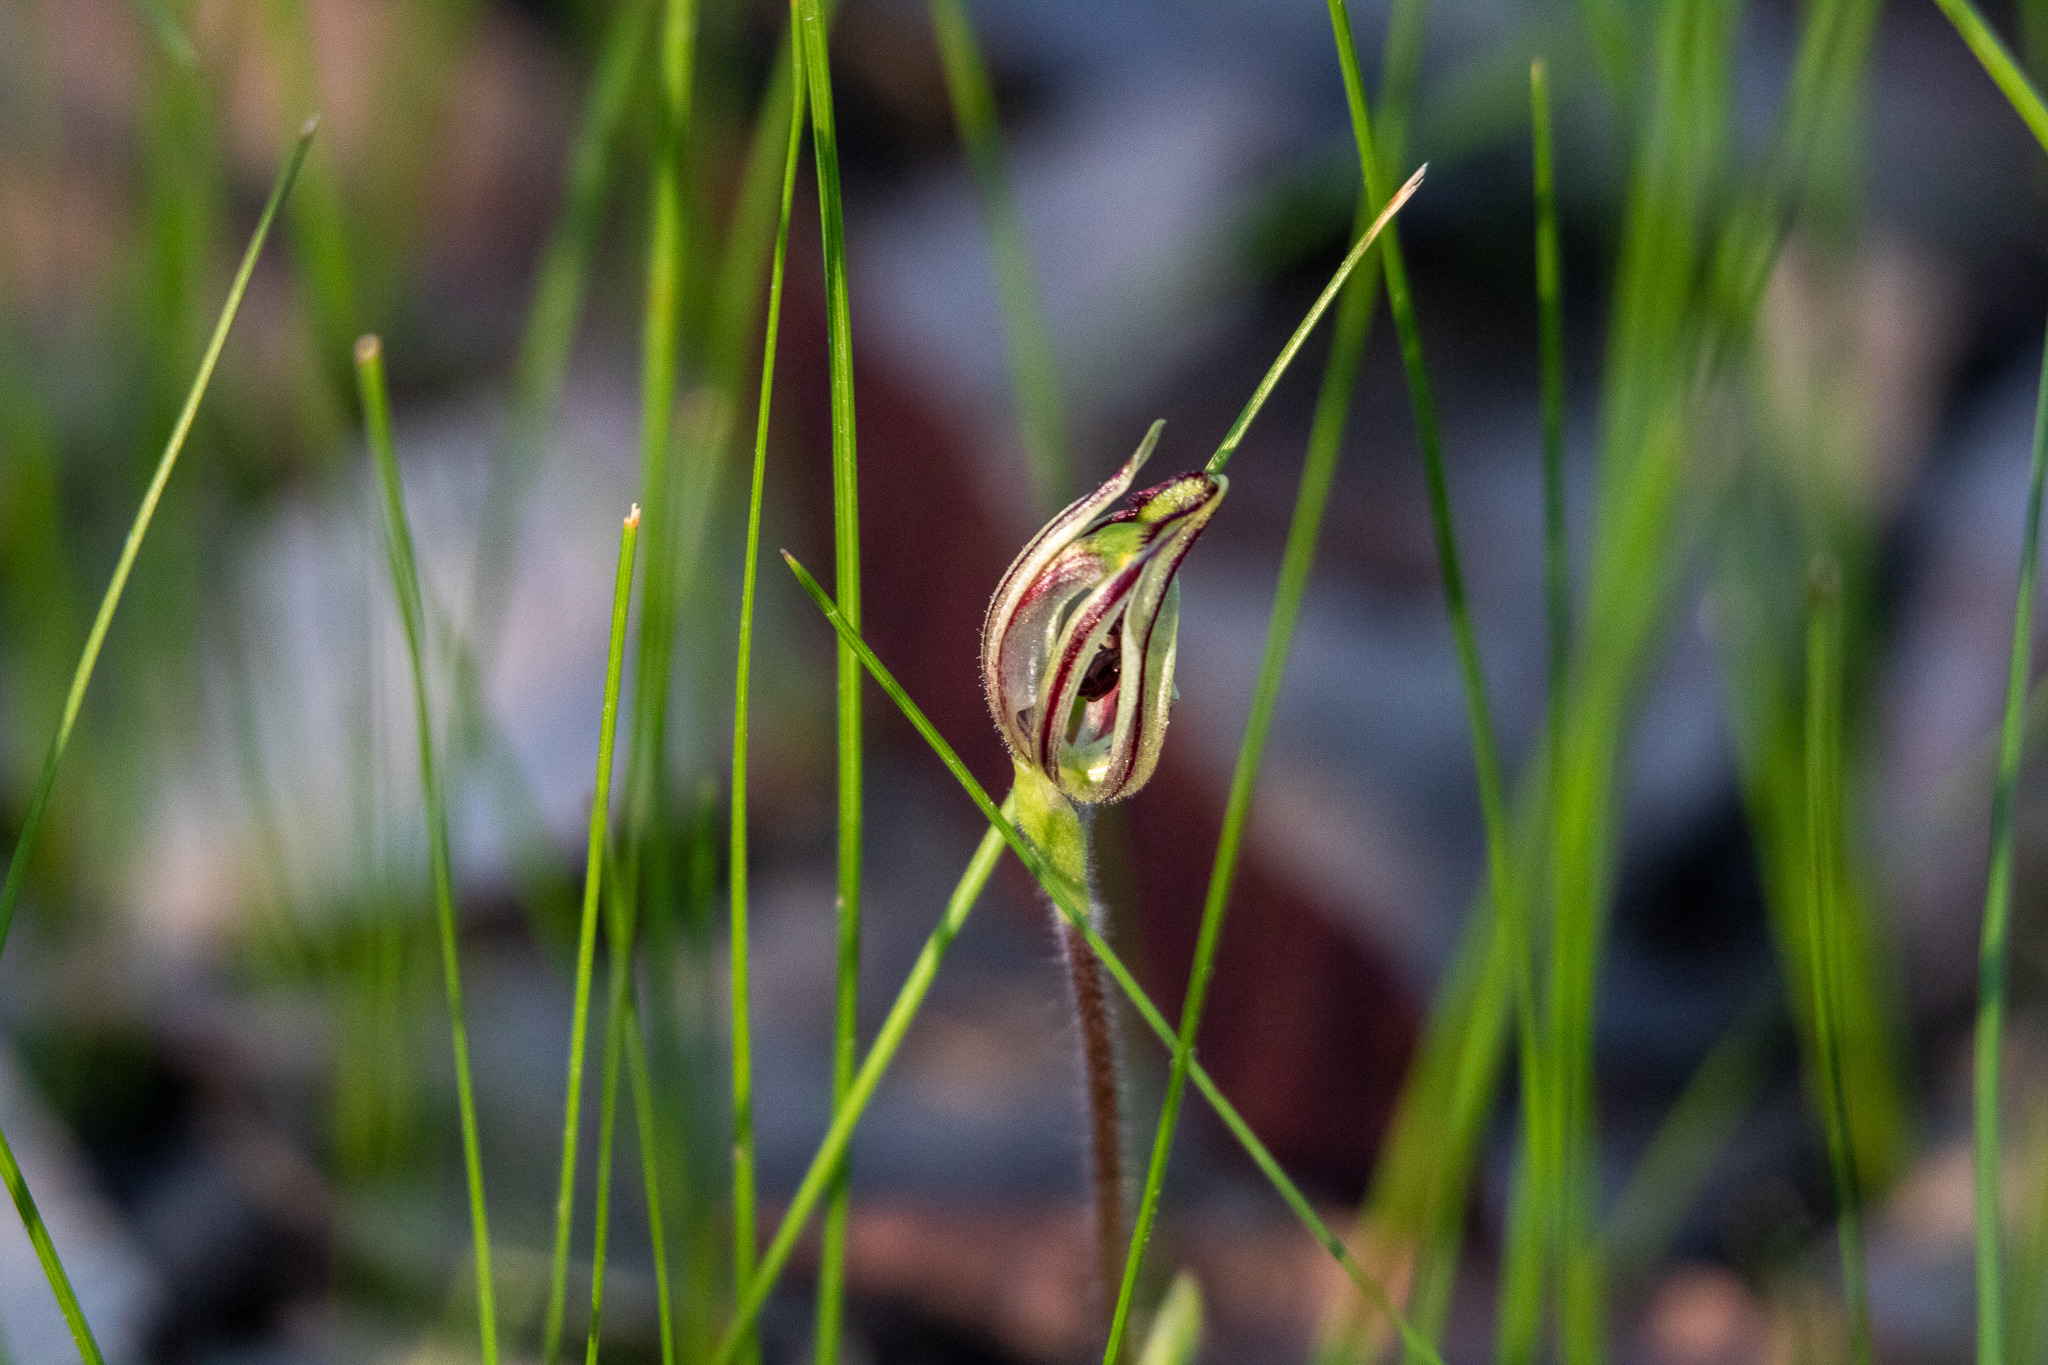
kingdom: Plantae
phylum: Tracheophyta
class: Liliopsida
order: Asparagales
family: Orchidaceae
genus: Caladenia
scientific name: Caladenia barbarossa
